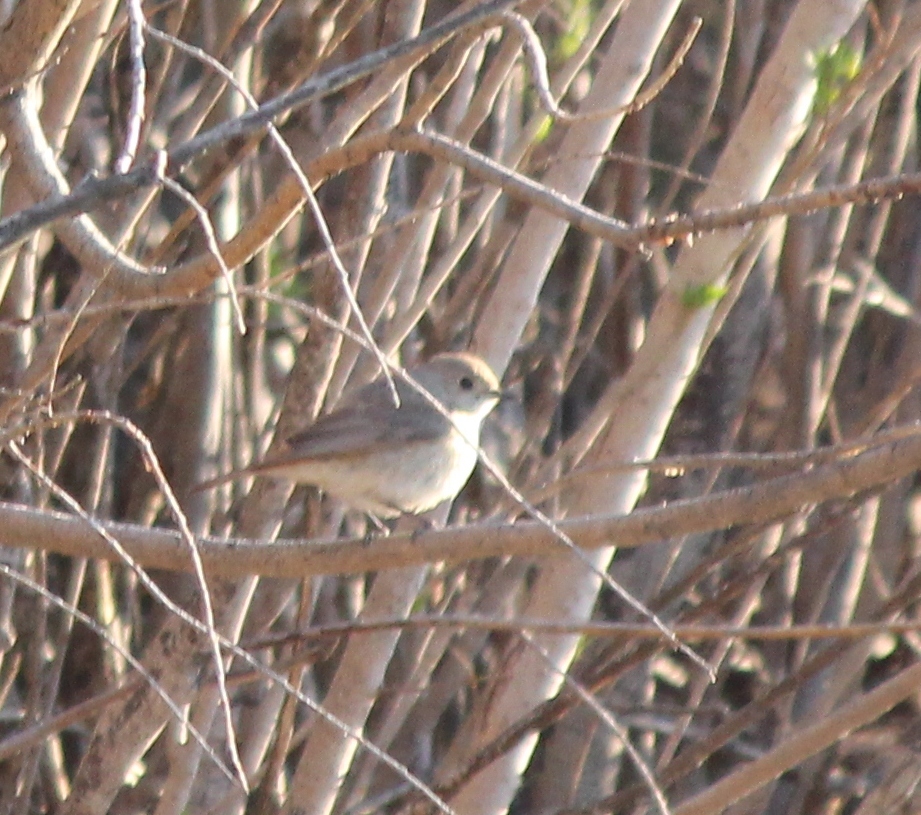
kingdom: Animalia
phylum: Chordata
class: Aves
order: Passeriformes
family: Muscicapidae
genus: Phoenicurus
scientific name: Phoenicurus phoenicurus
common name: Common redstart
